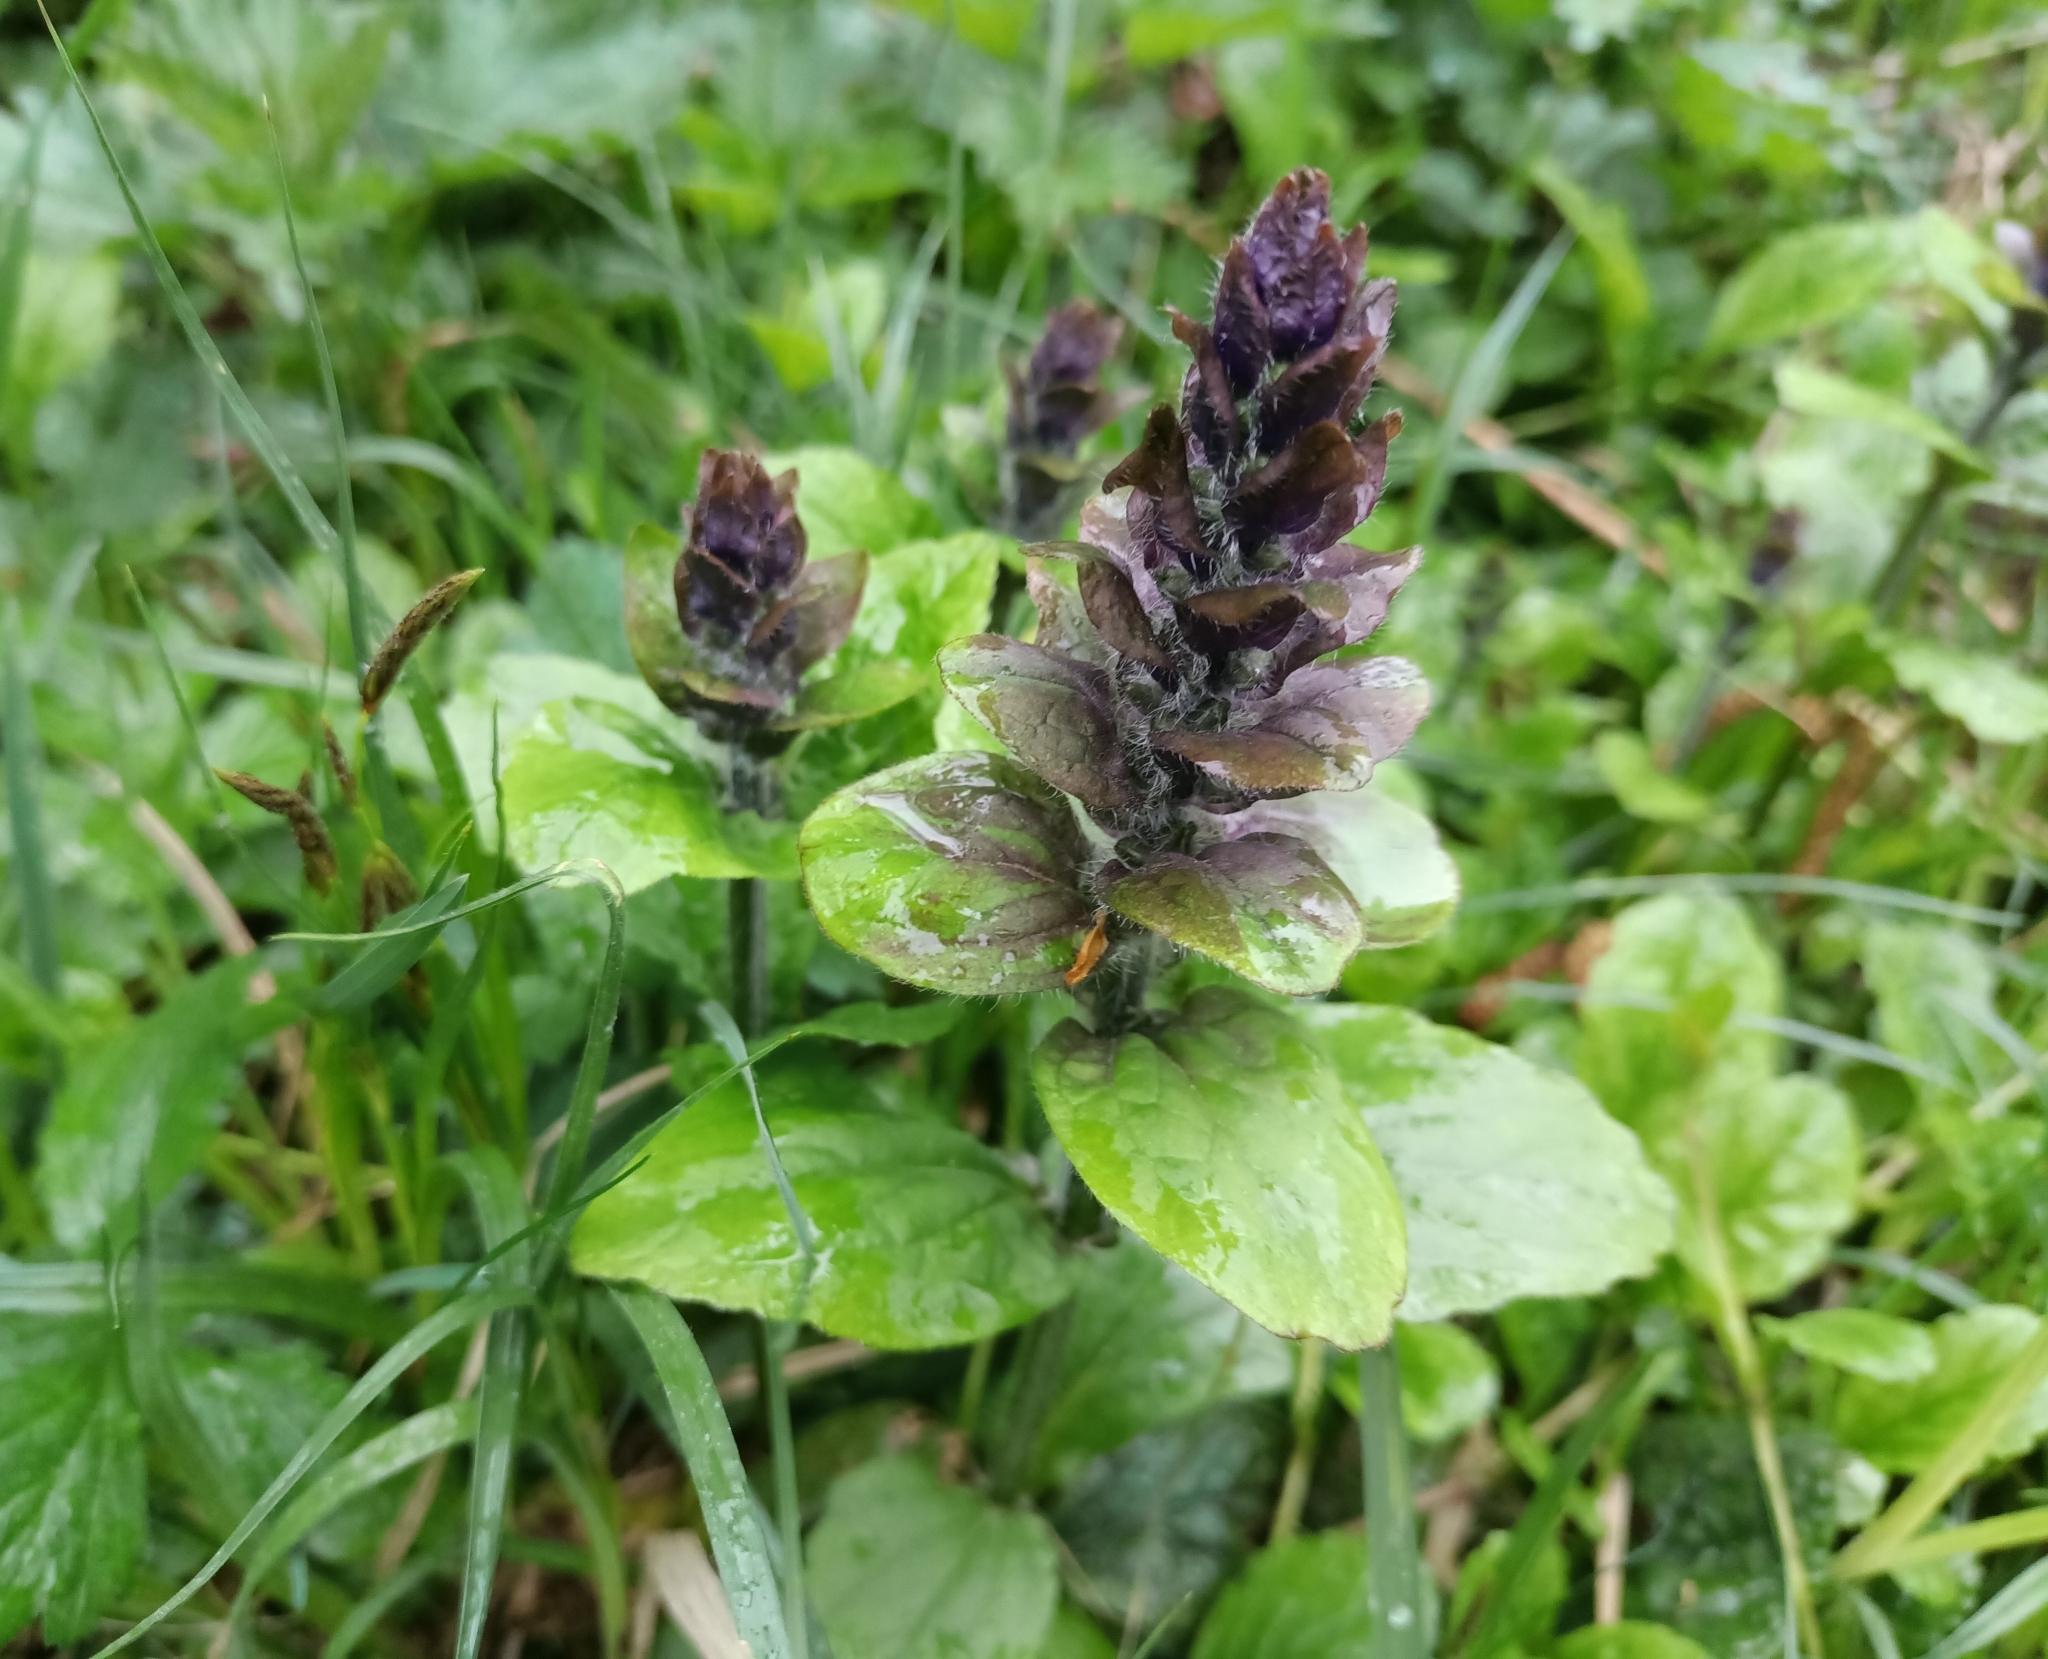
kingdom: Plantae
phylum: Tracheophyta
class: Magnoliopsida
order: Lamiales
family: Lamiaceae
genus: Ajuga
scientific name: Ajuga reptans
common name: Bugle
